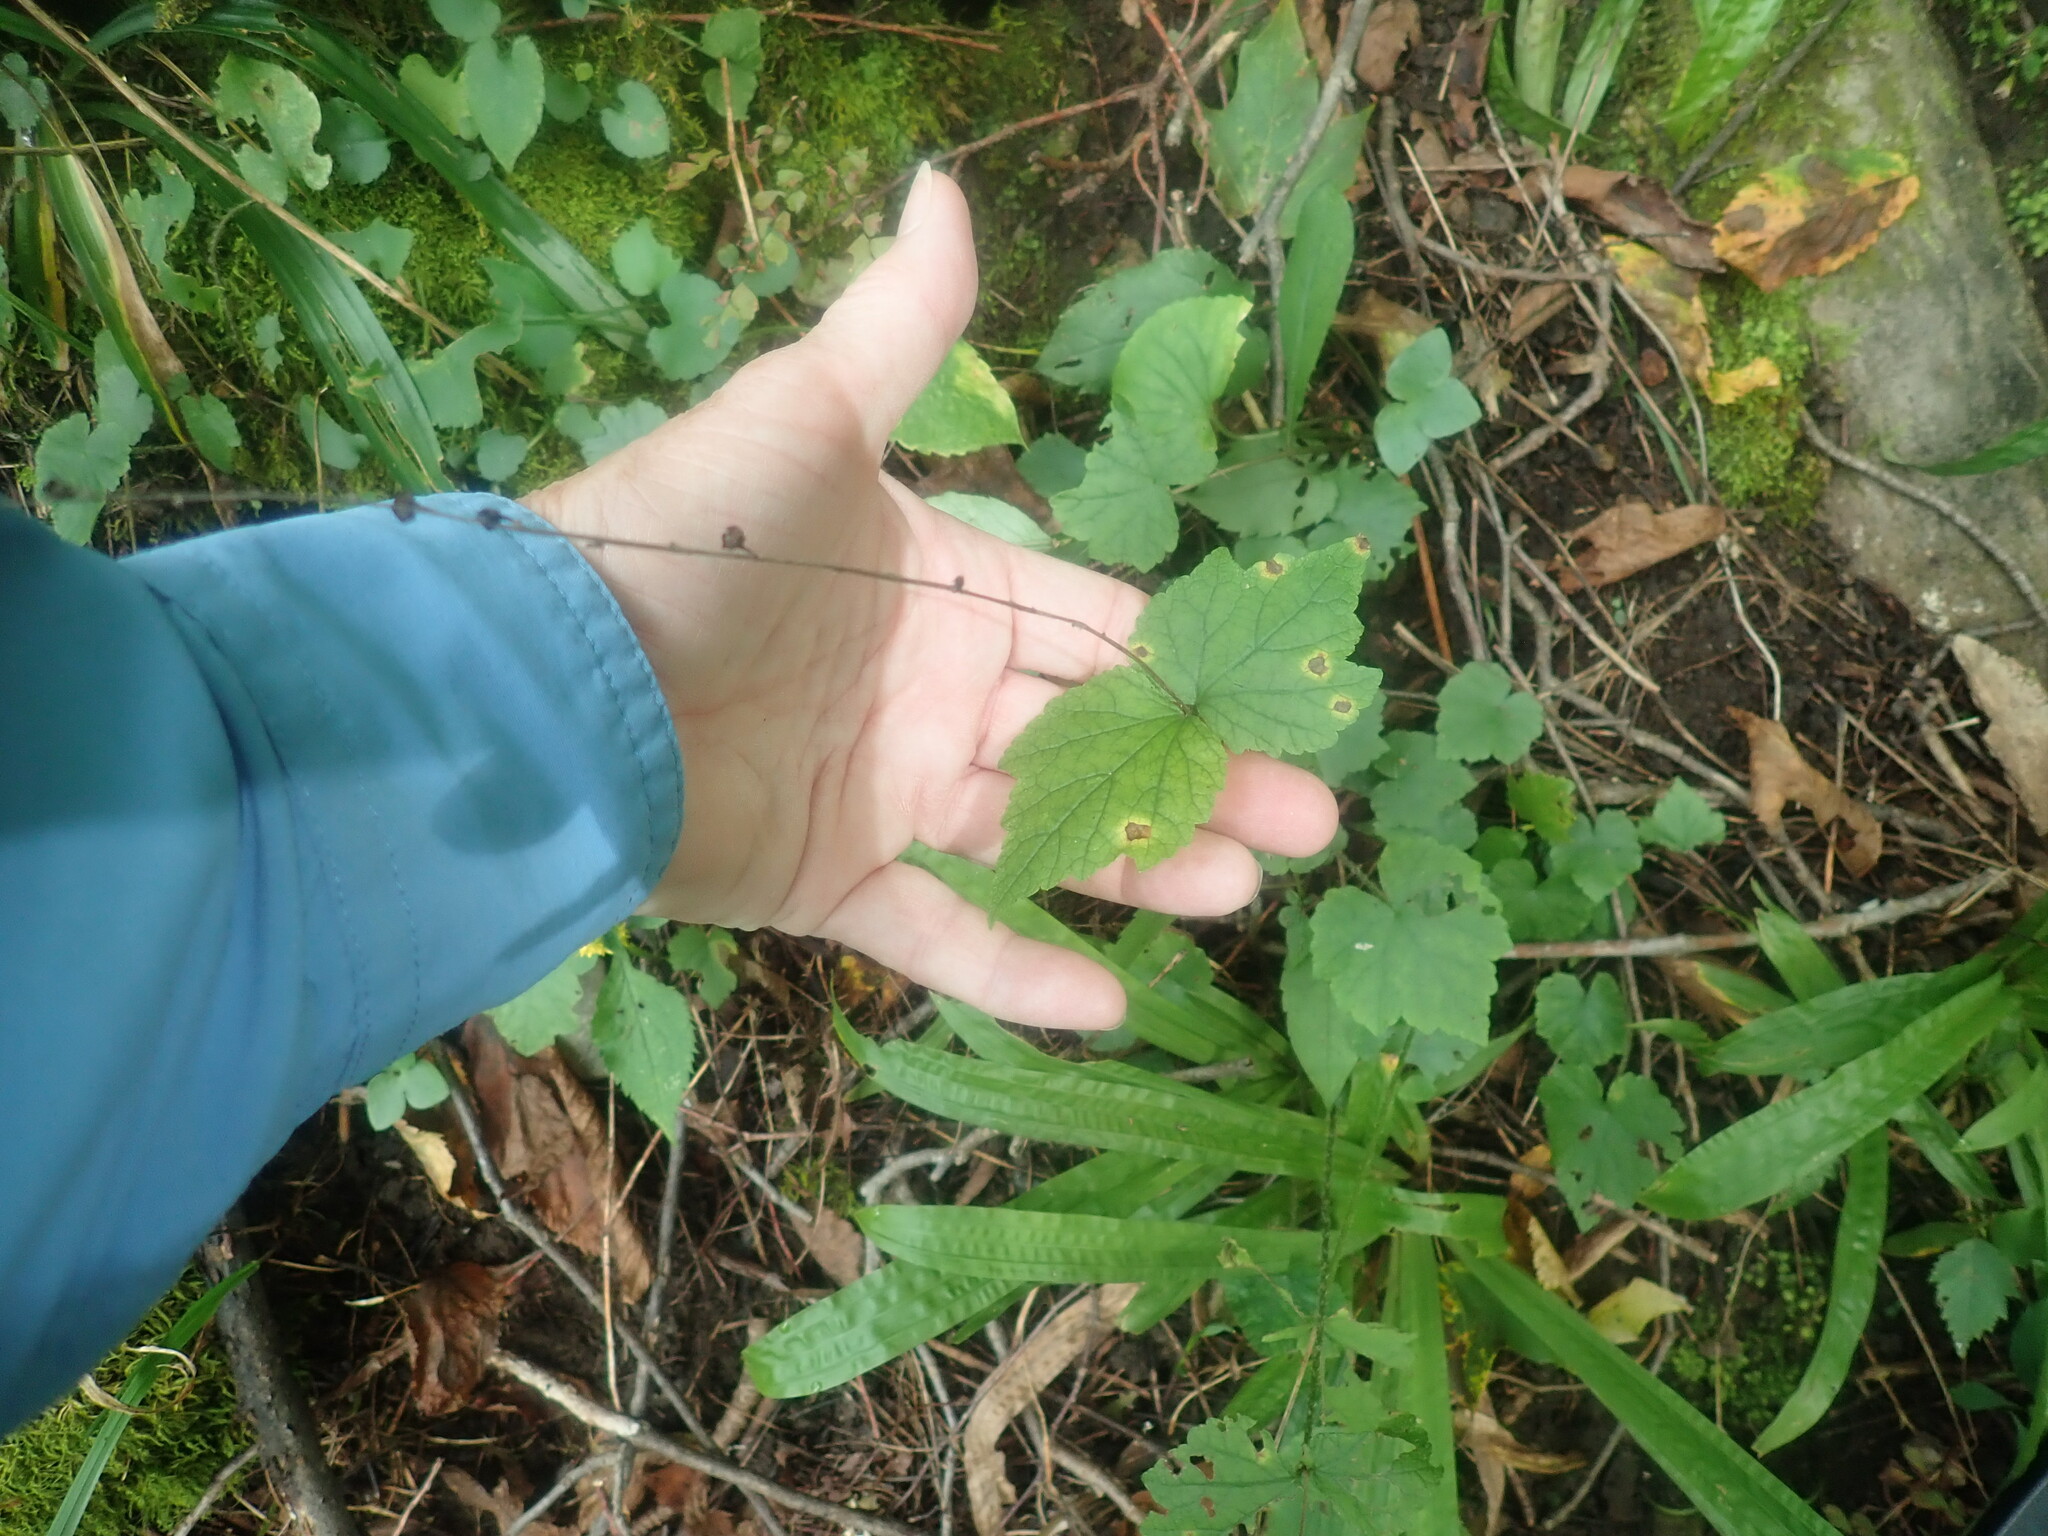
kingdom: Plantae
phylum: Tracheophyta
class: Magnoliopsida
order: Saxifragales
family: Saxifragaceae
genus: Mitella
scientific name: Mitella diphylla
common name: Coolwort
